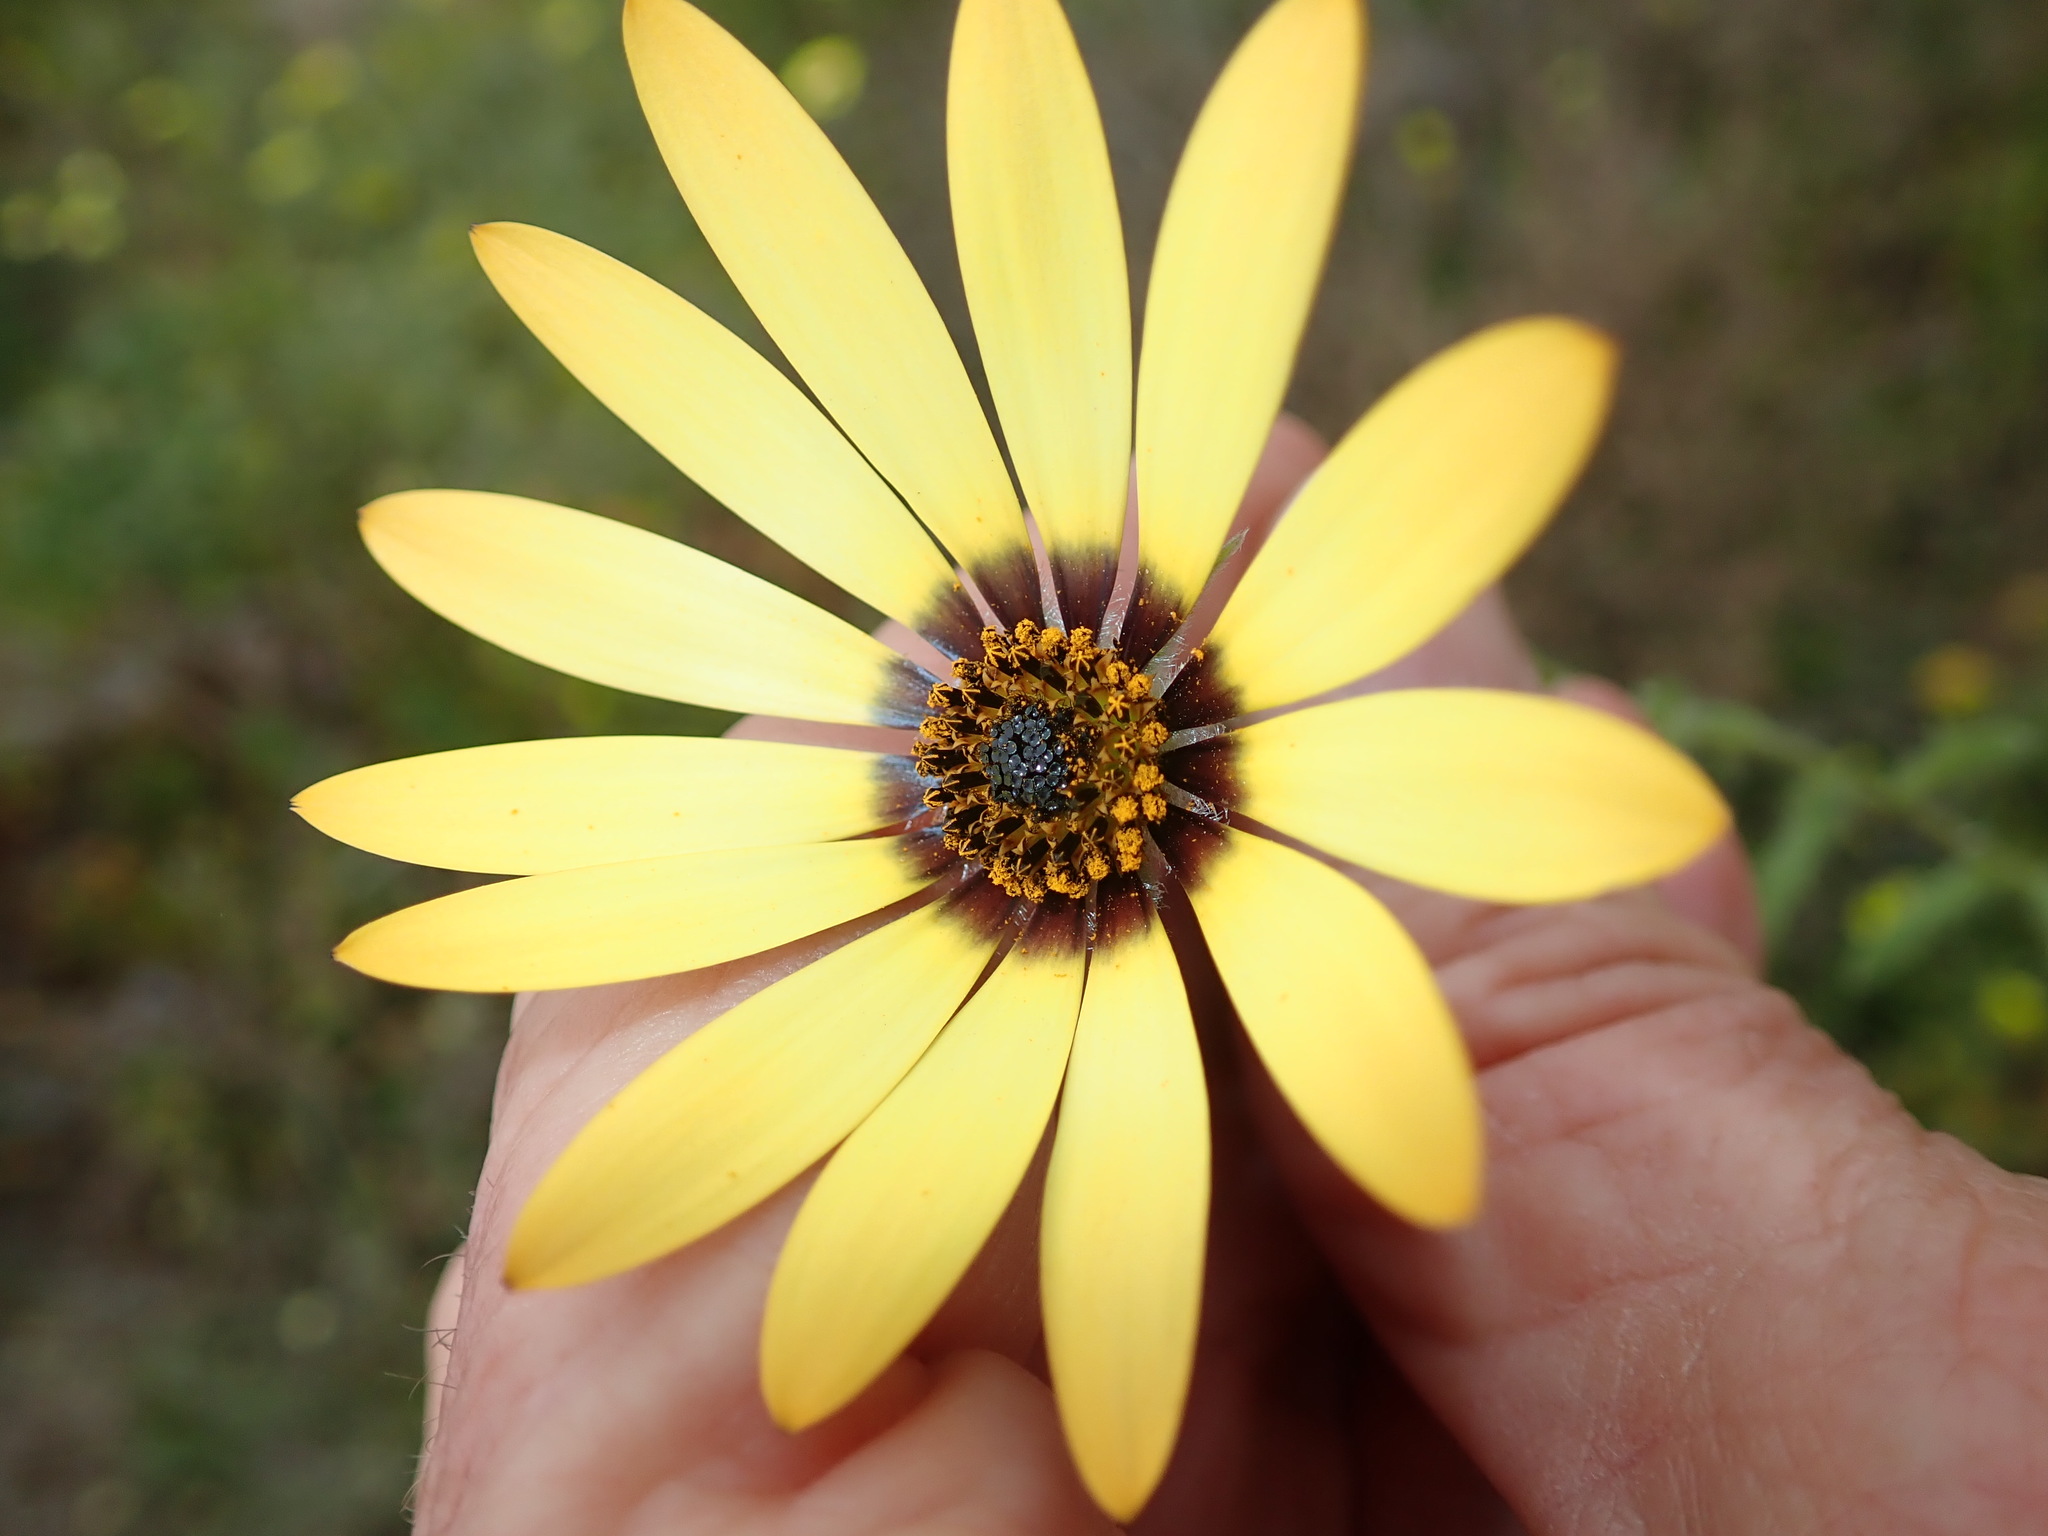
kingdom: Plantae
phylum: Tracheophyta
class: Magnoliopsida
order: Asterales
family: Asteraceae
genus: Dimorphotheca
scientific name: Dimorphotheca sinuata
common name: Glandular cape marigold
